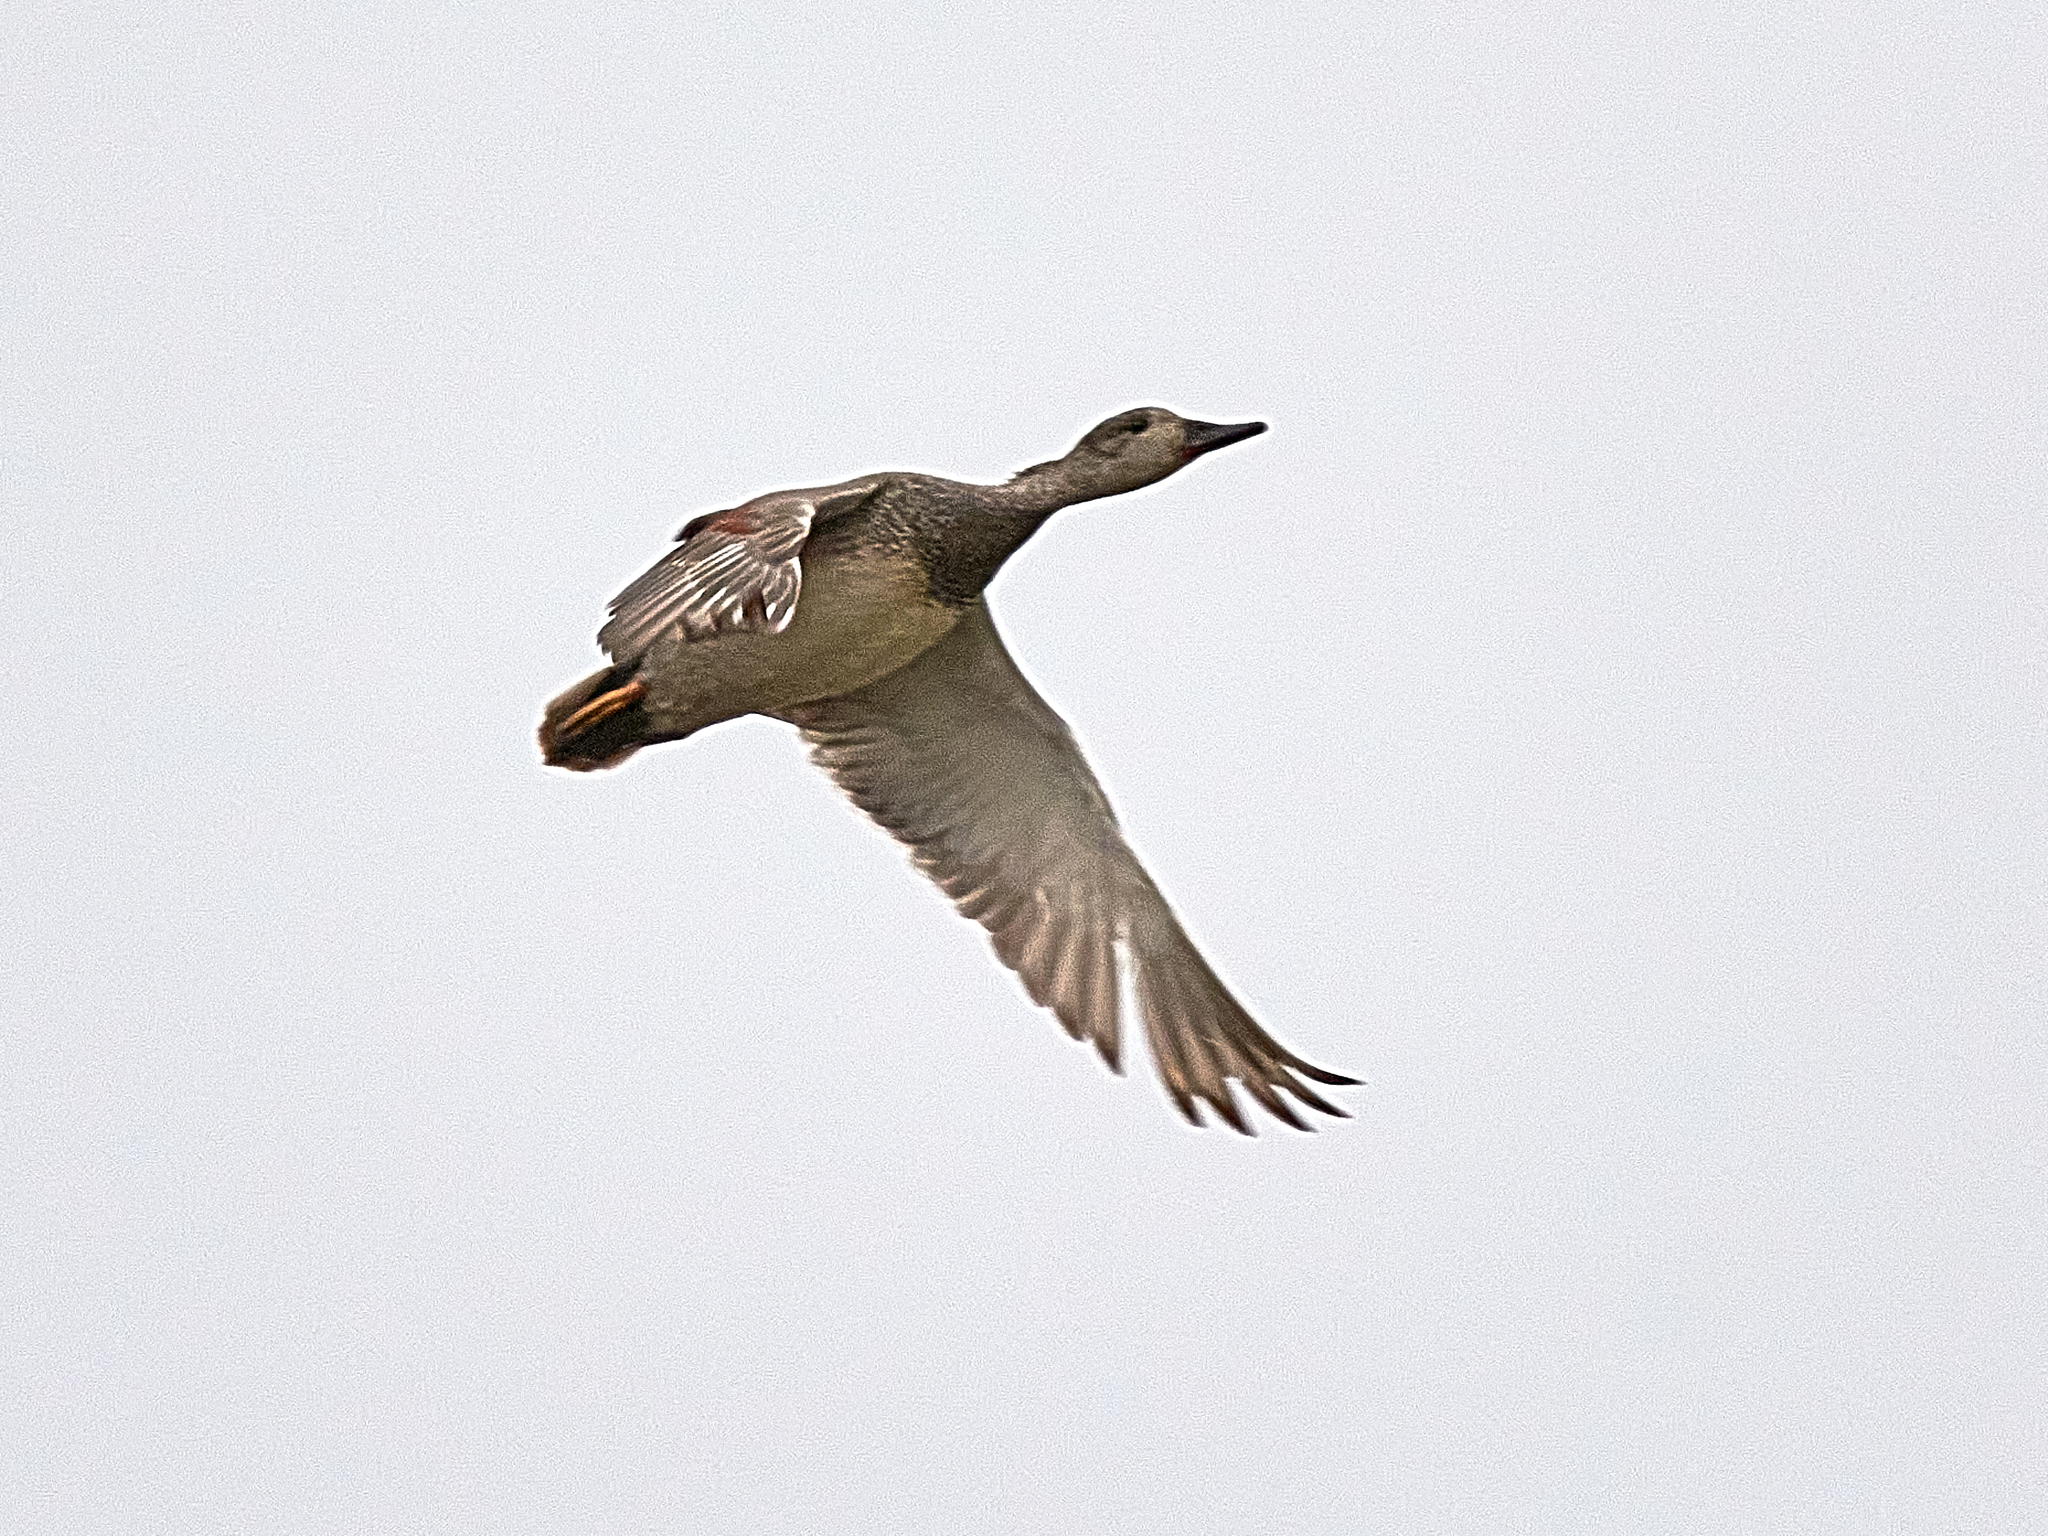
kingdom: Animalia
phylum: Chordata
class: Aves
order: Anseriformes
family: Anatidae
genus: Mareca
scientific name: Mareca strepera
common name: Gadwall
